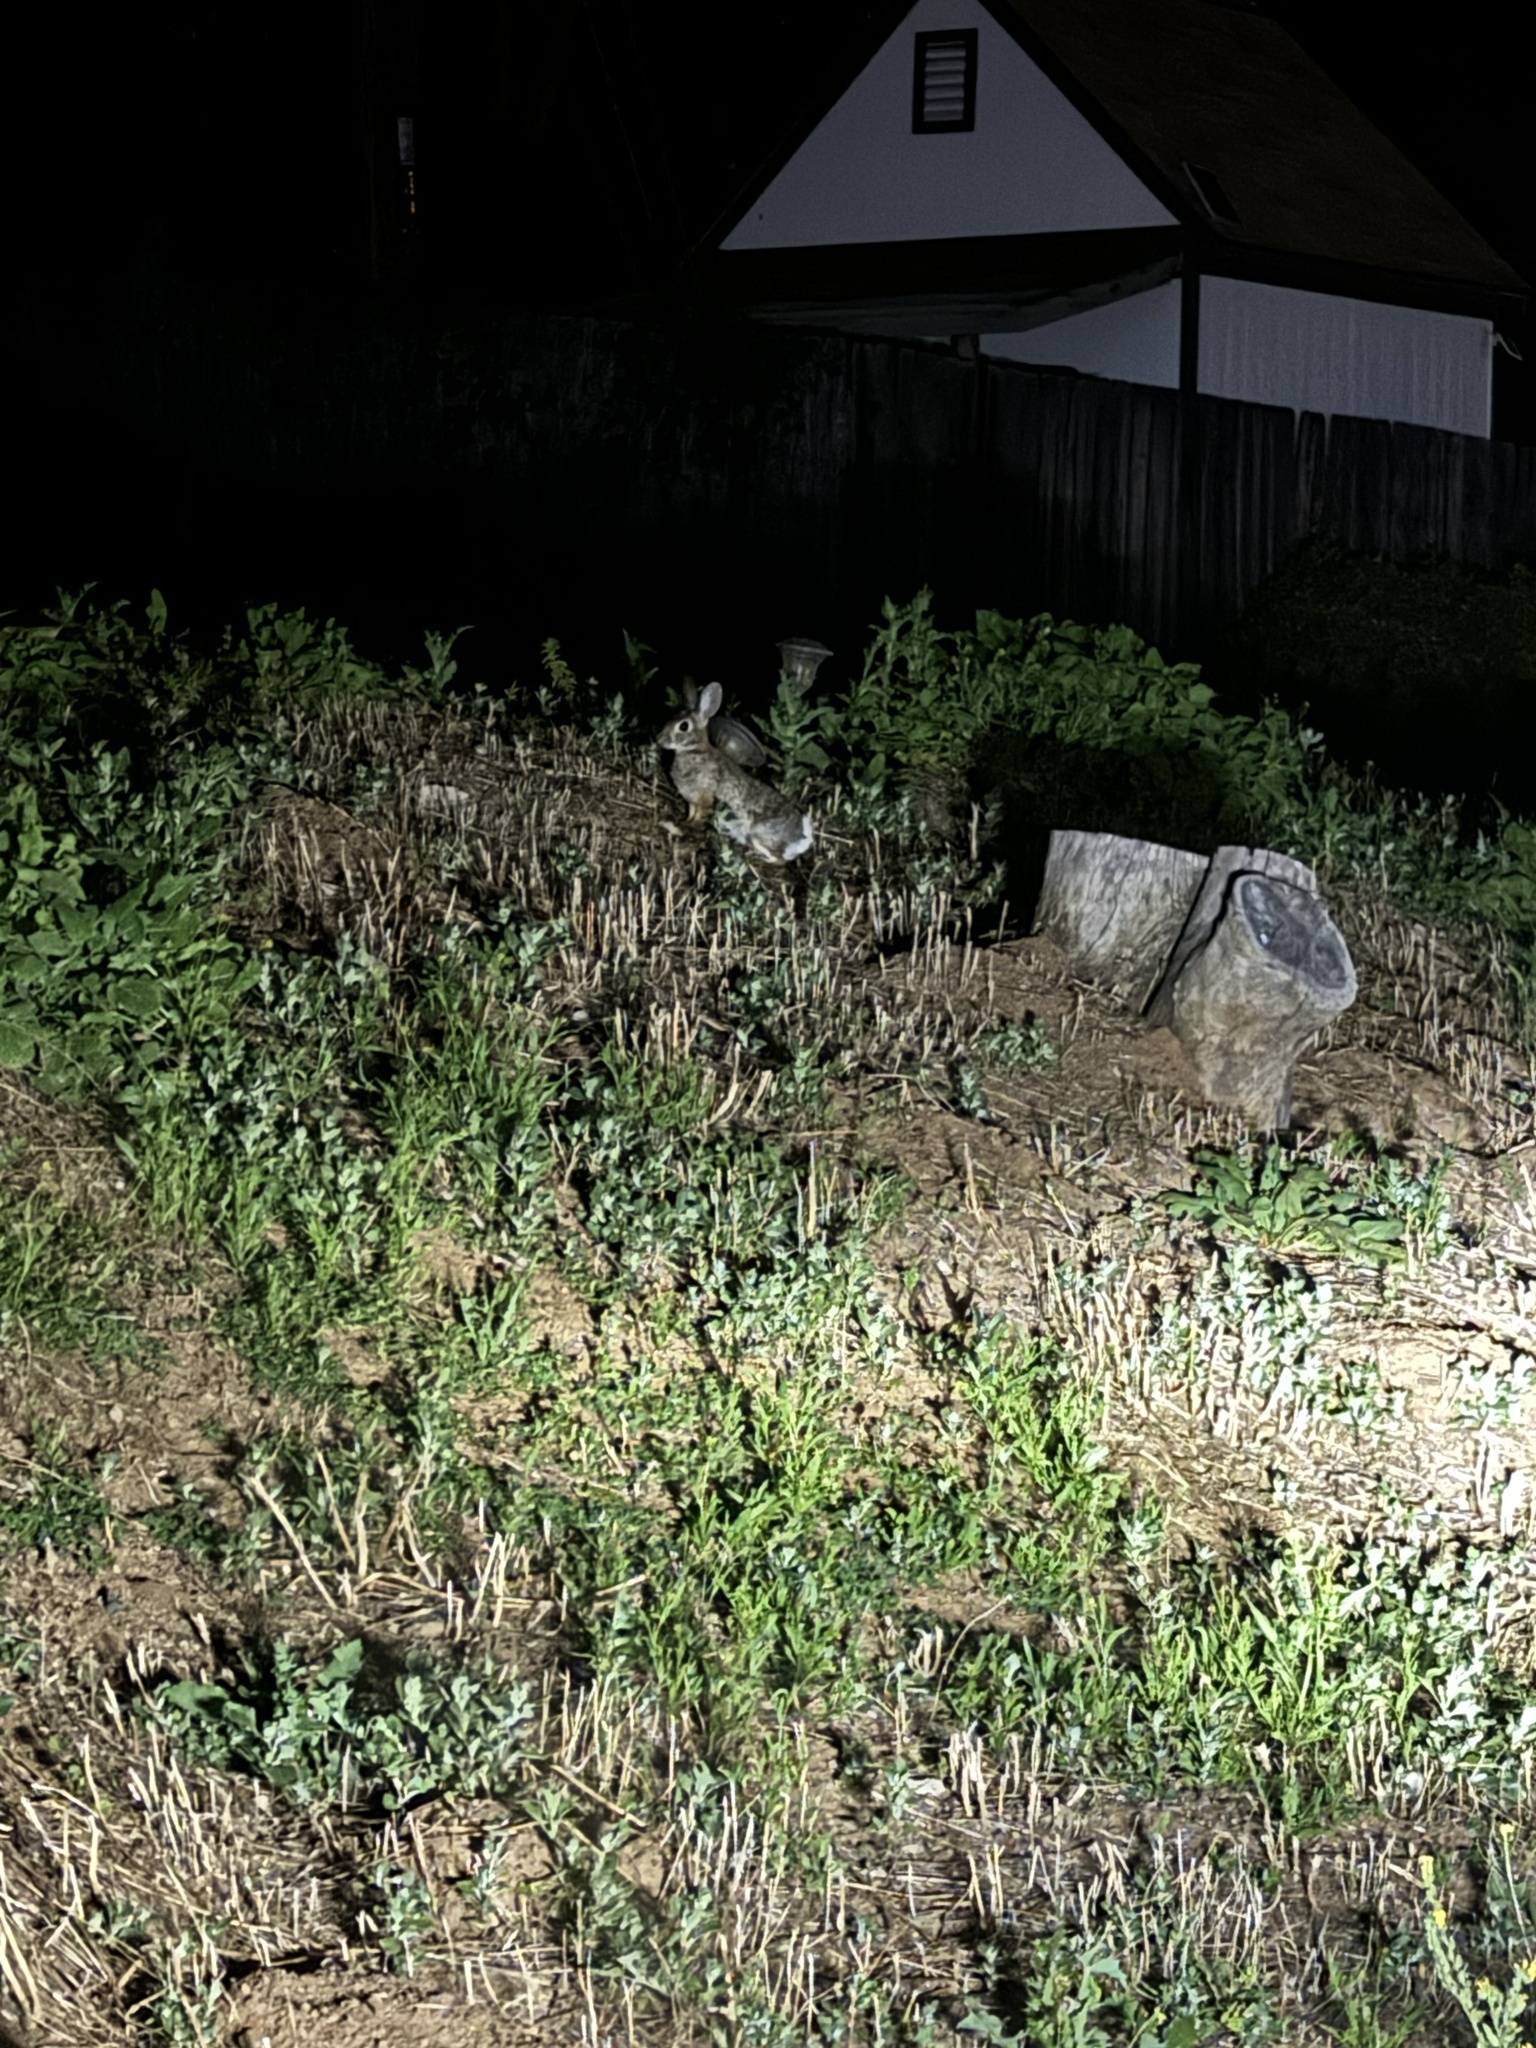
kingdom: Animalia
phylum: Chordata
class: Mammalia
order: Lagomorpha
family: Leporidae
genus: Sylvilagus
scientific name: Sylvilagus audubonii
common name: Desert cottontail
